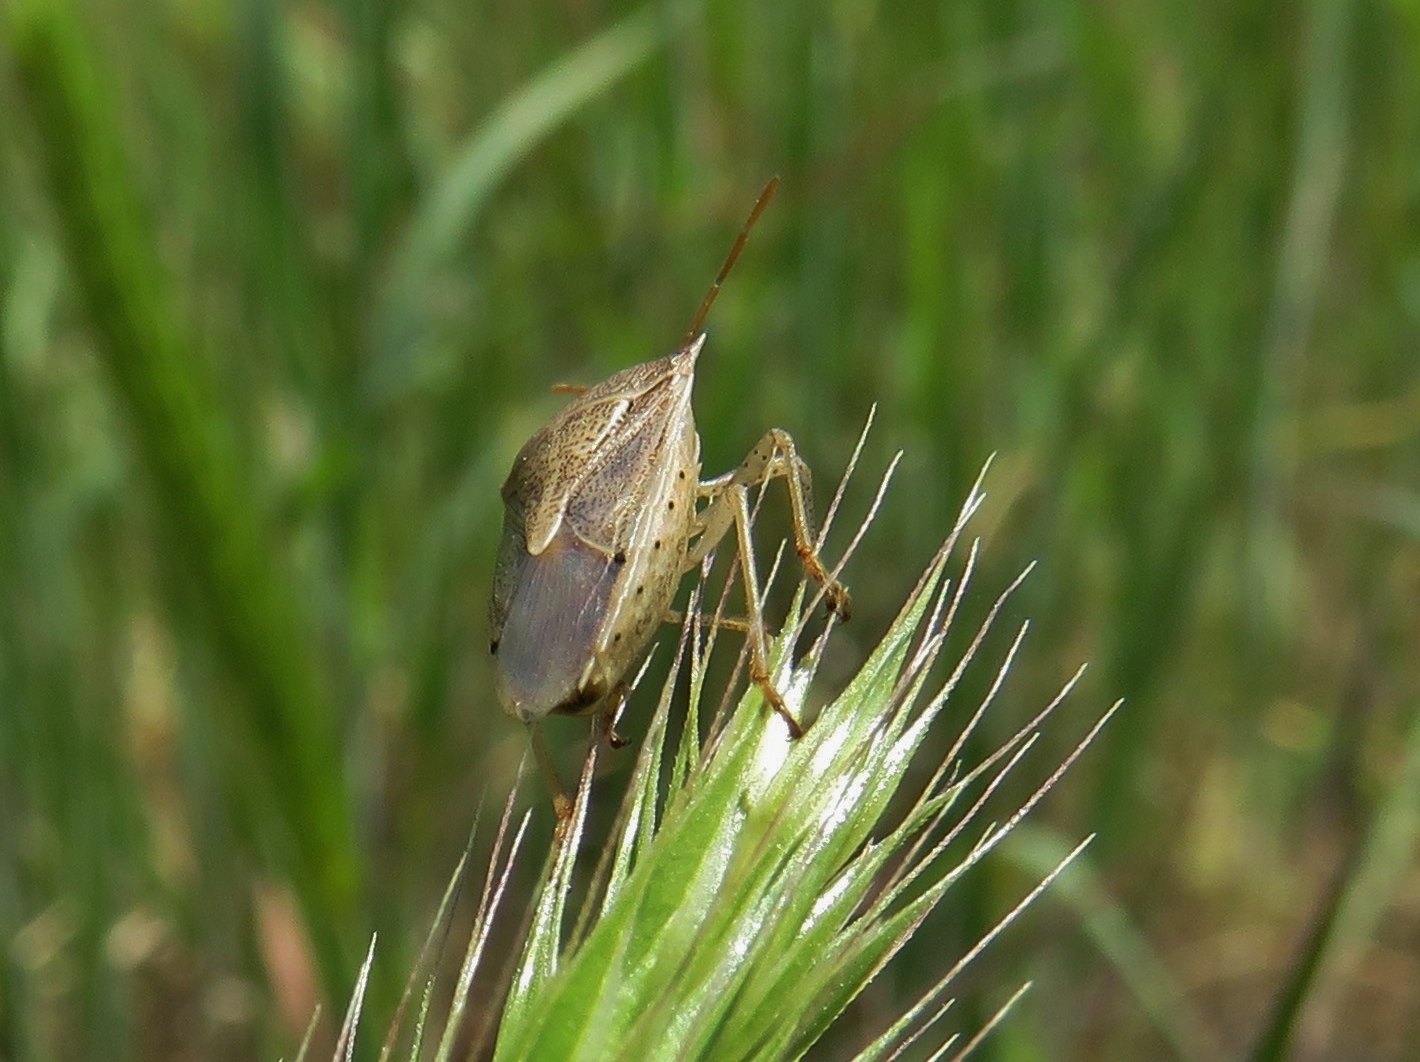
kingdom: Animalia
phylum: Arthropoda
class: Insecta
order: Hemiptera
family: Pentatomidae
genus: Oebalus
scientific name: Oebalus pugnax
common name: Rice stink bug
